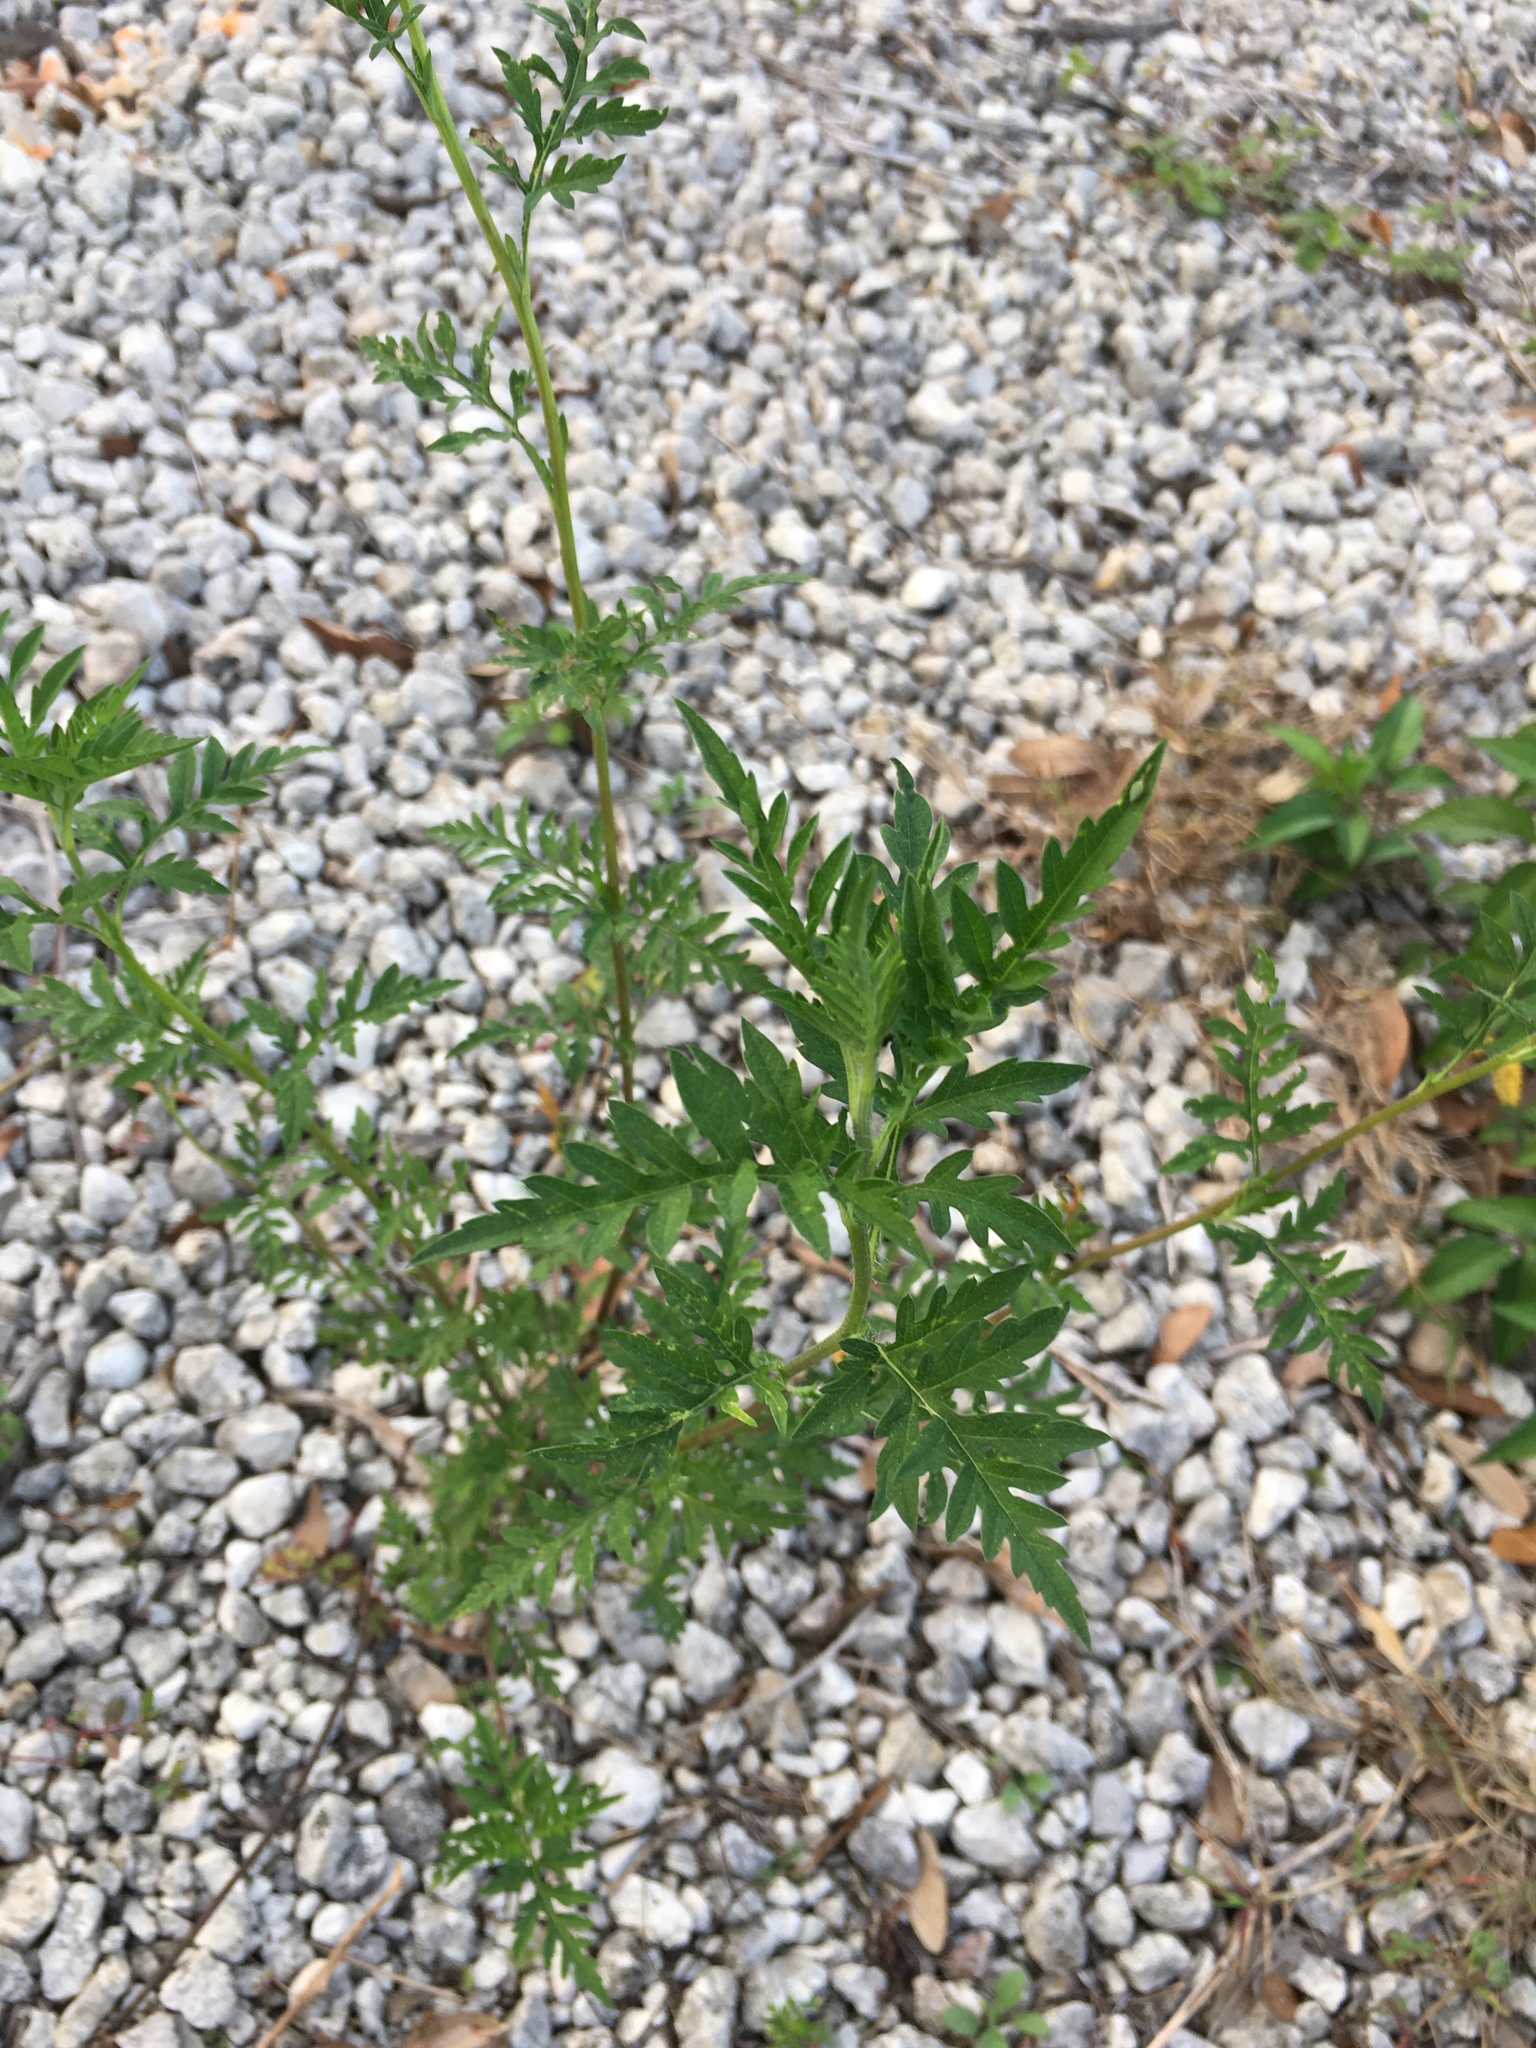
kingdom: Plantae
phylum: Tracheophyta
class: Magnoliopsida
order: Asterales
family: Asteraceae
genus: Ambrosia
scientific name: Ambrosia artemisiifolia
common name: Annual ragweed
